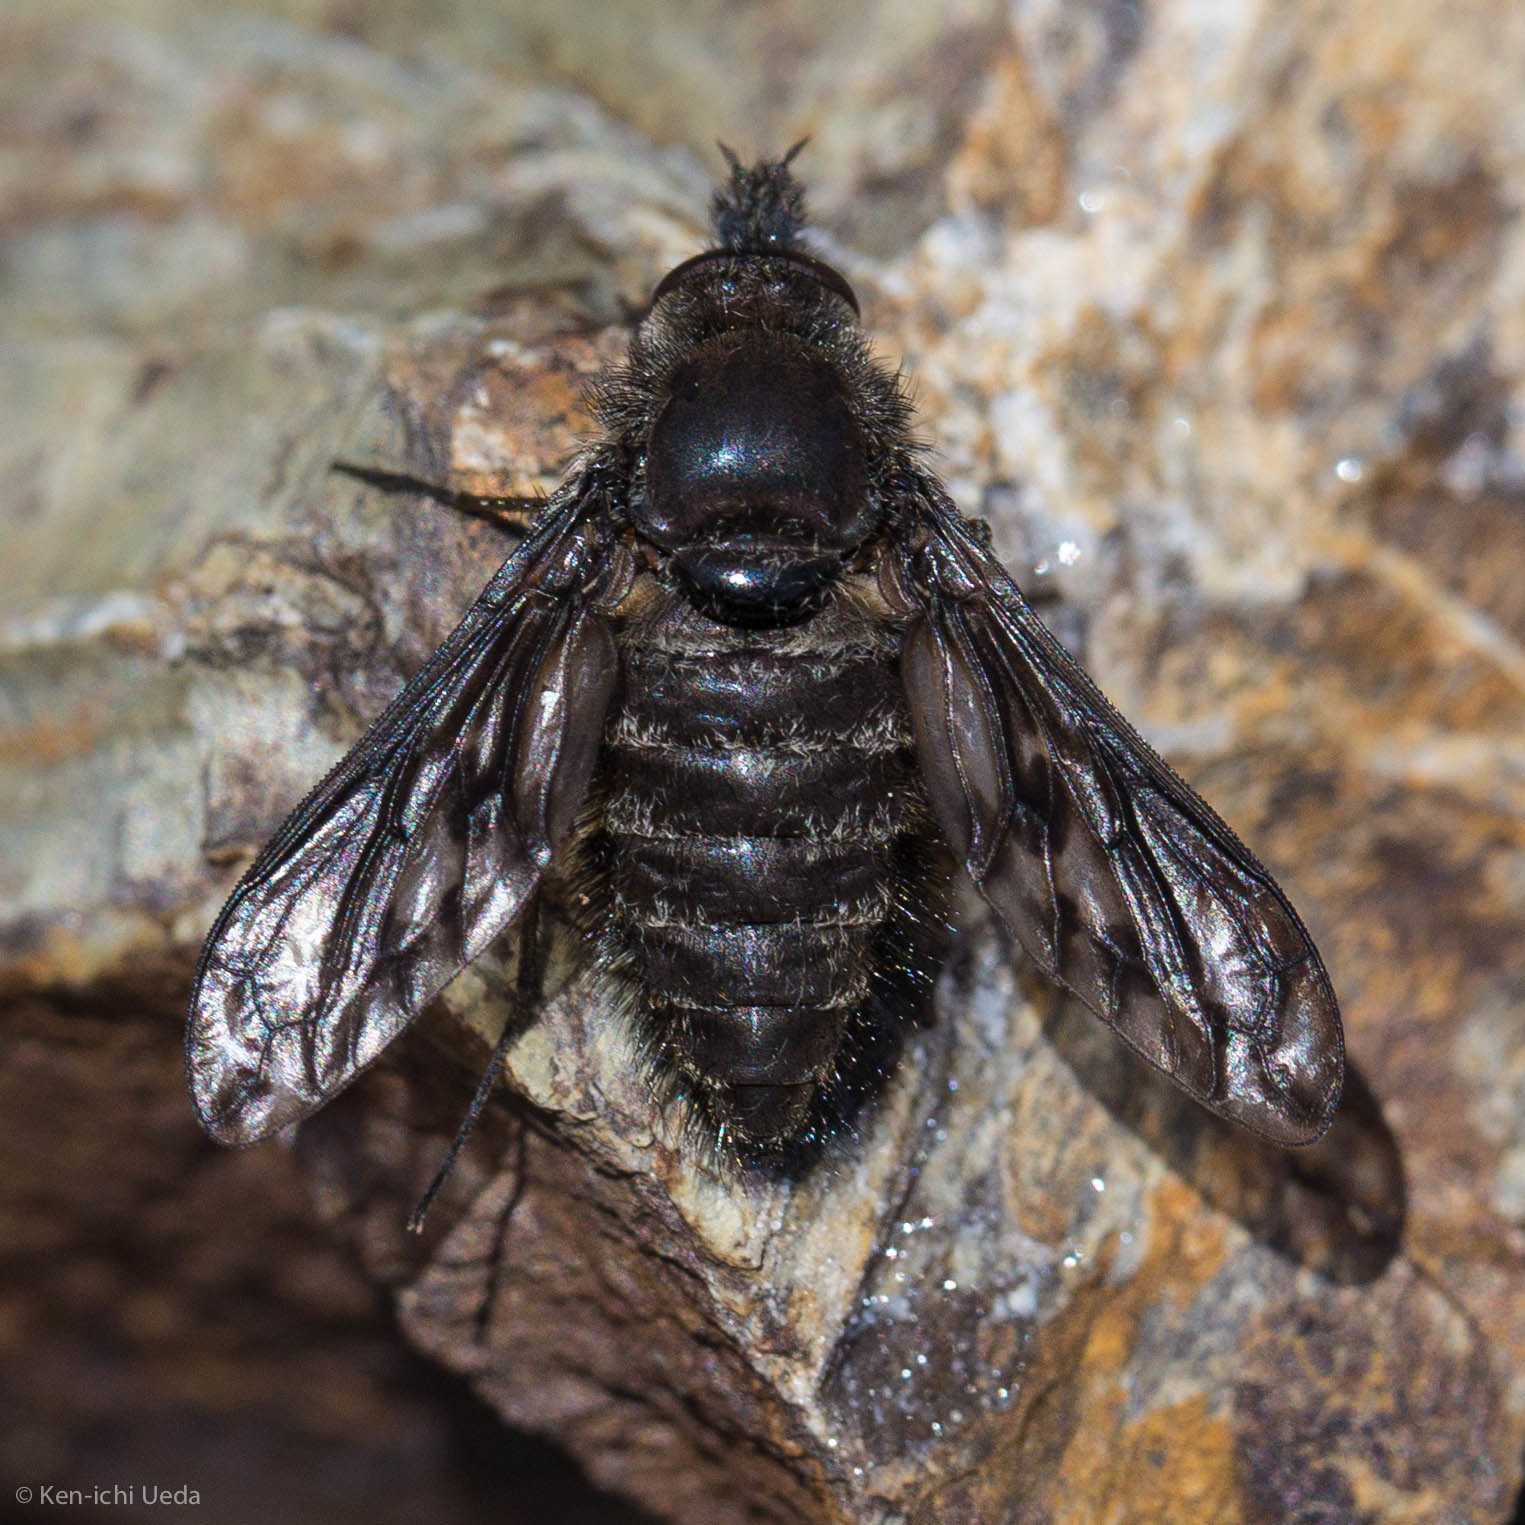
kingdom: Animalia
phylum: Arthropoda
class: Insecta
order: Diptera
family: Bombyliidae
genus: Conophorus
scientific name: Conophorus fenestratus
